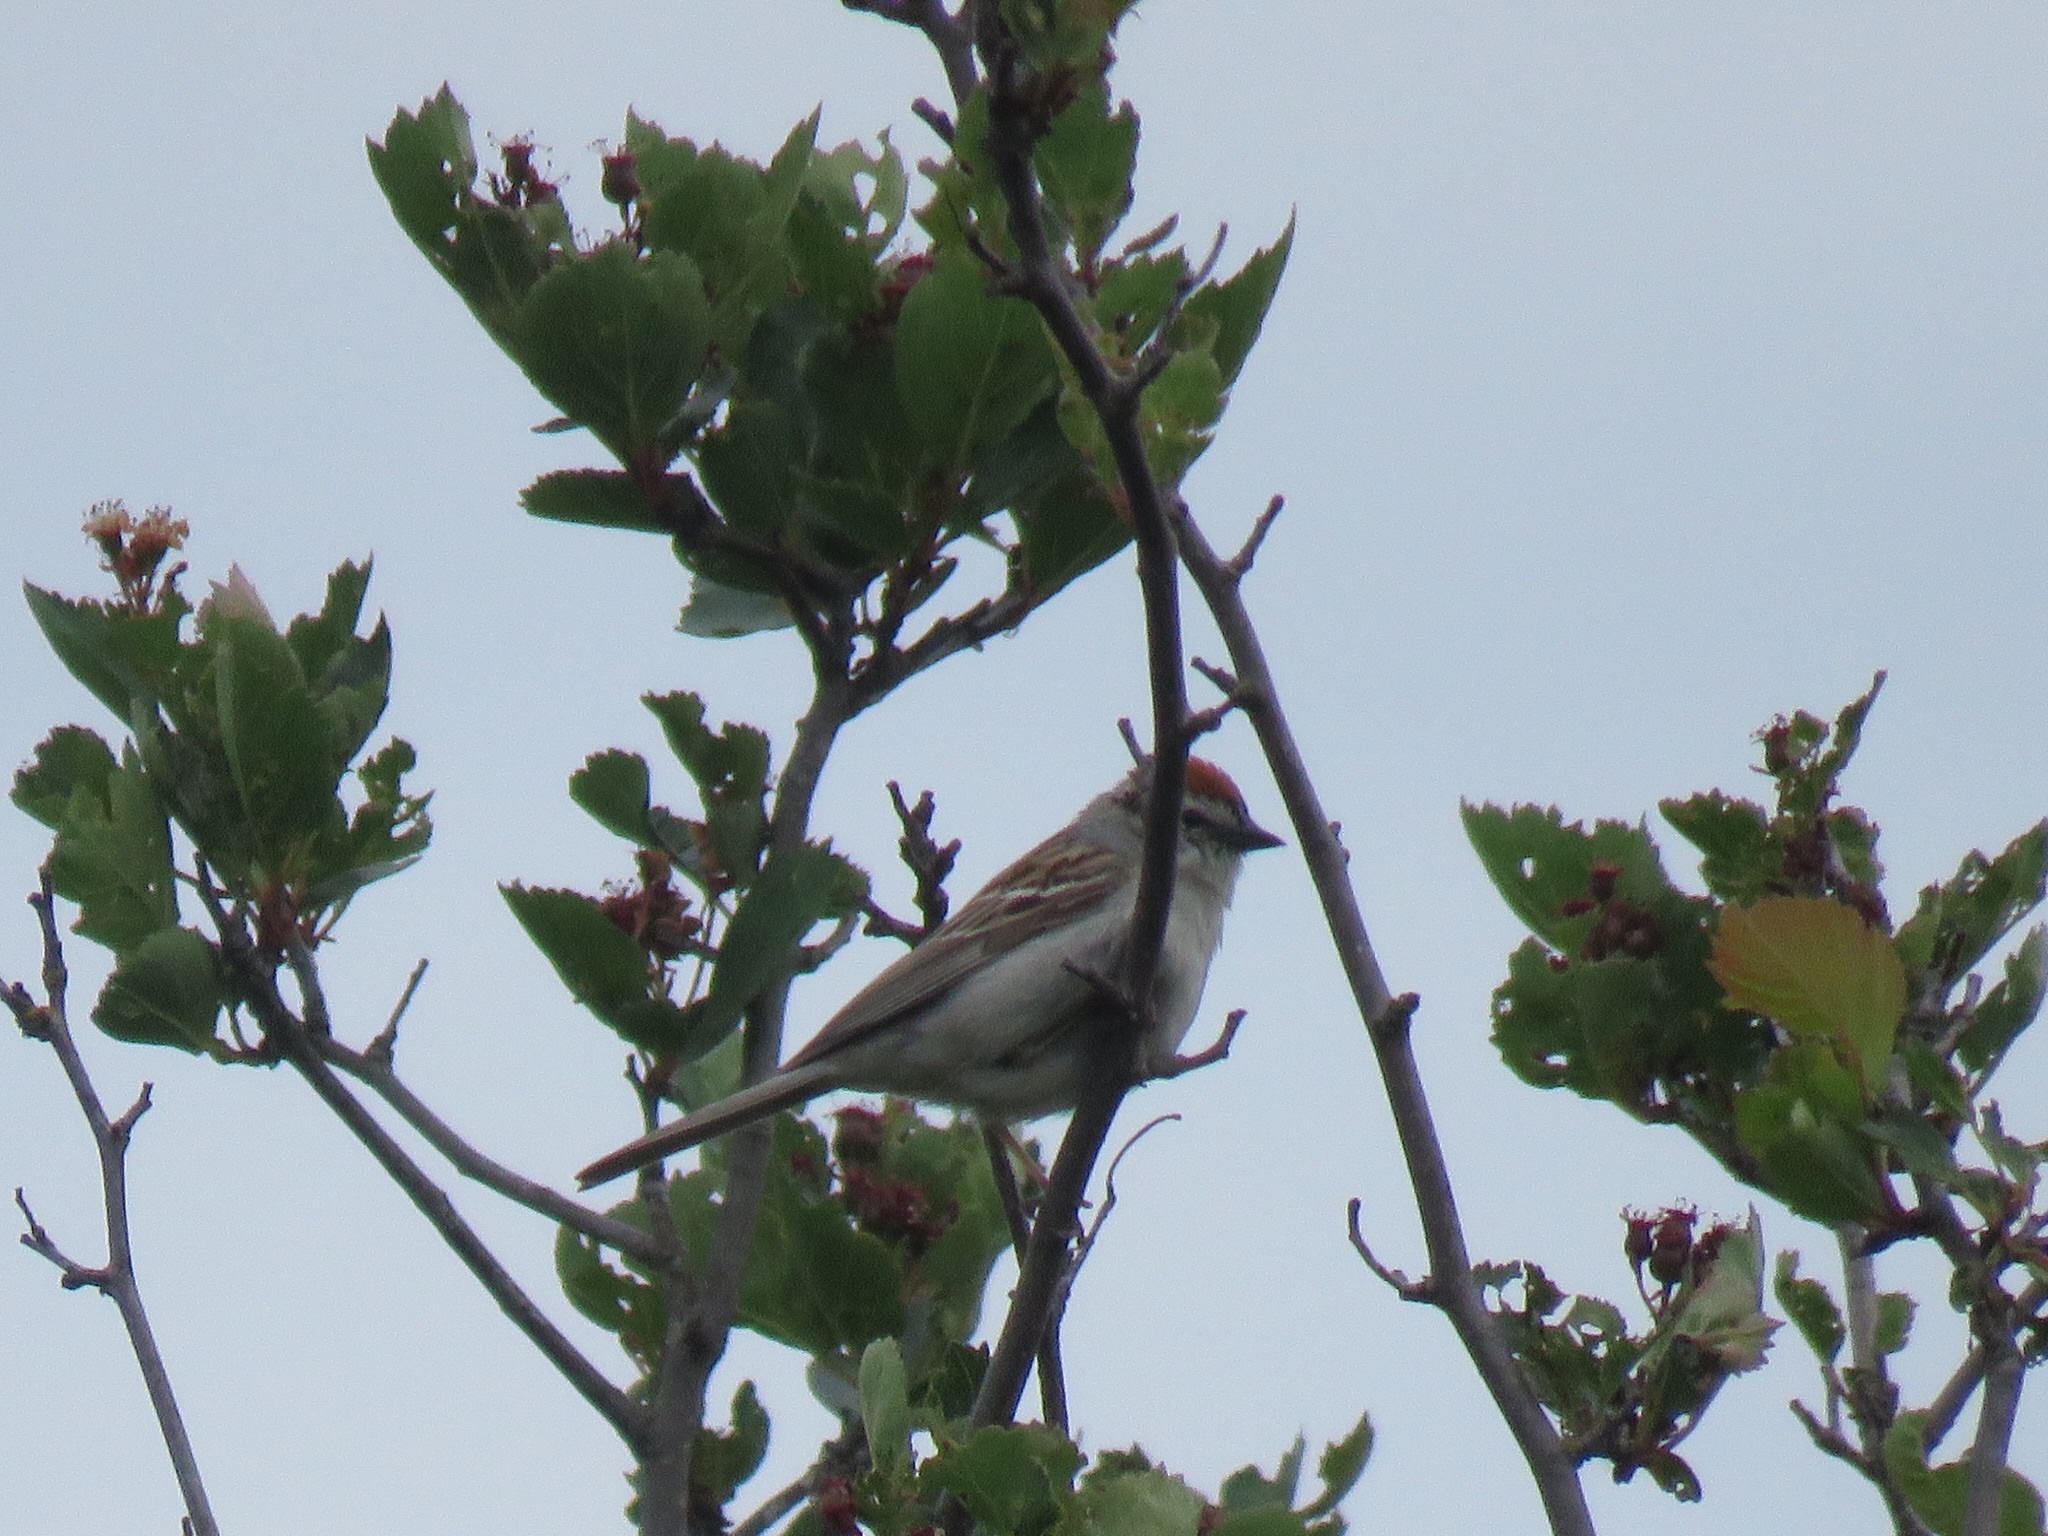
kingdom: Animalia
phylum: Chordata
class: Aves
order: Passeriformes
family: Passerellidae
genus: Spizella
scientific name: Spizella passerina
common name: Chipping sparrow
